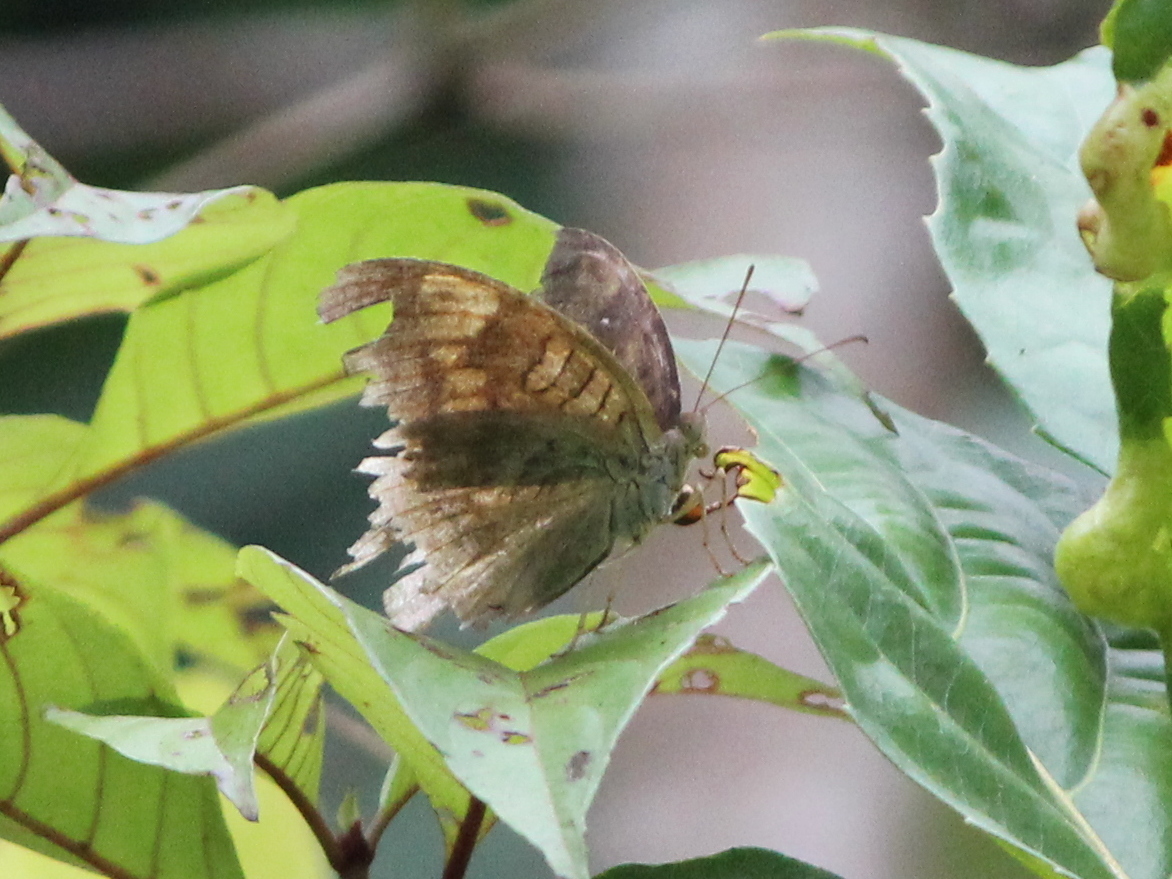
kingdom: Animalia
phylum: Arthropoda
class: Insecta
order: Lepidoptera
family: Nymphalidae
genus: Tanaecia
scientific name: Tanaecia lepidea
